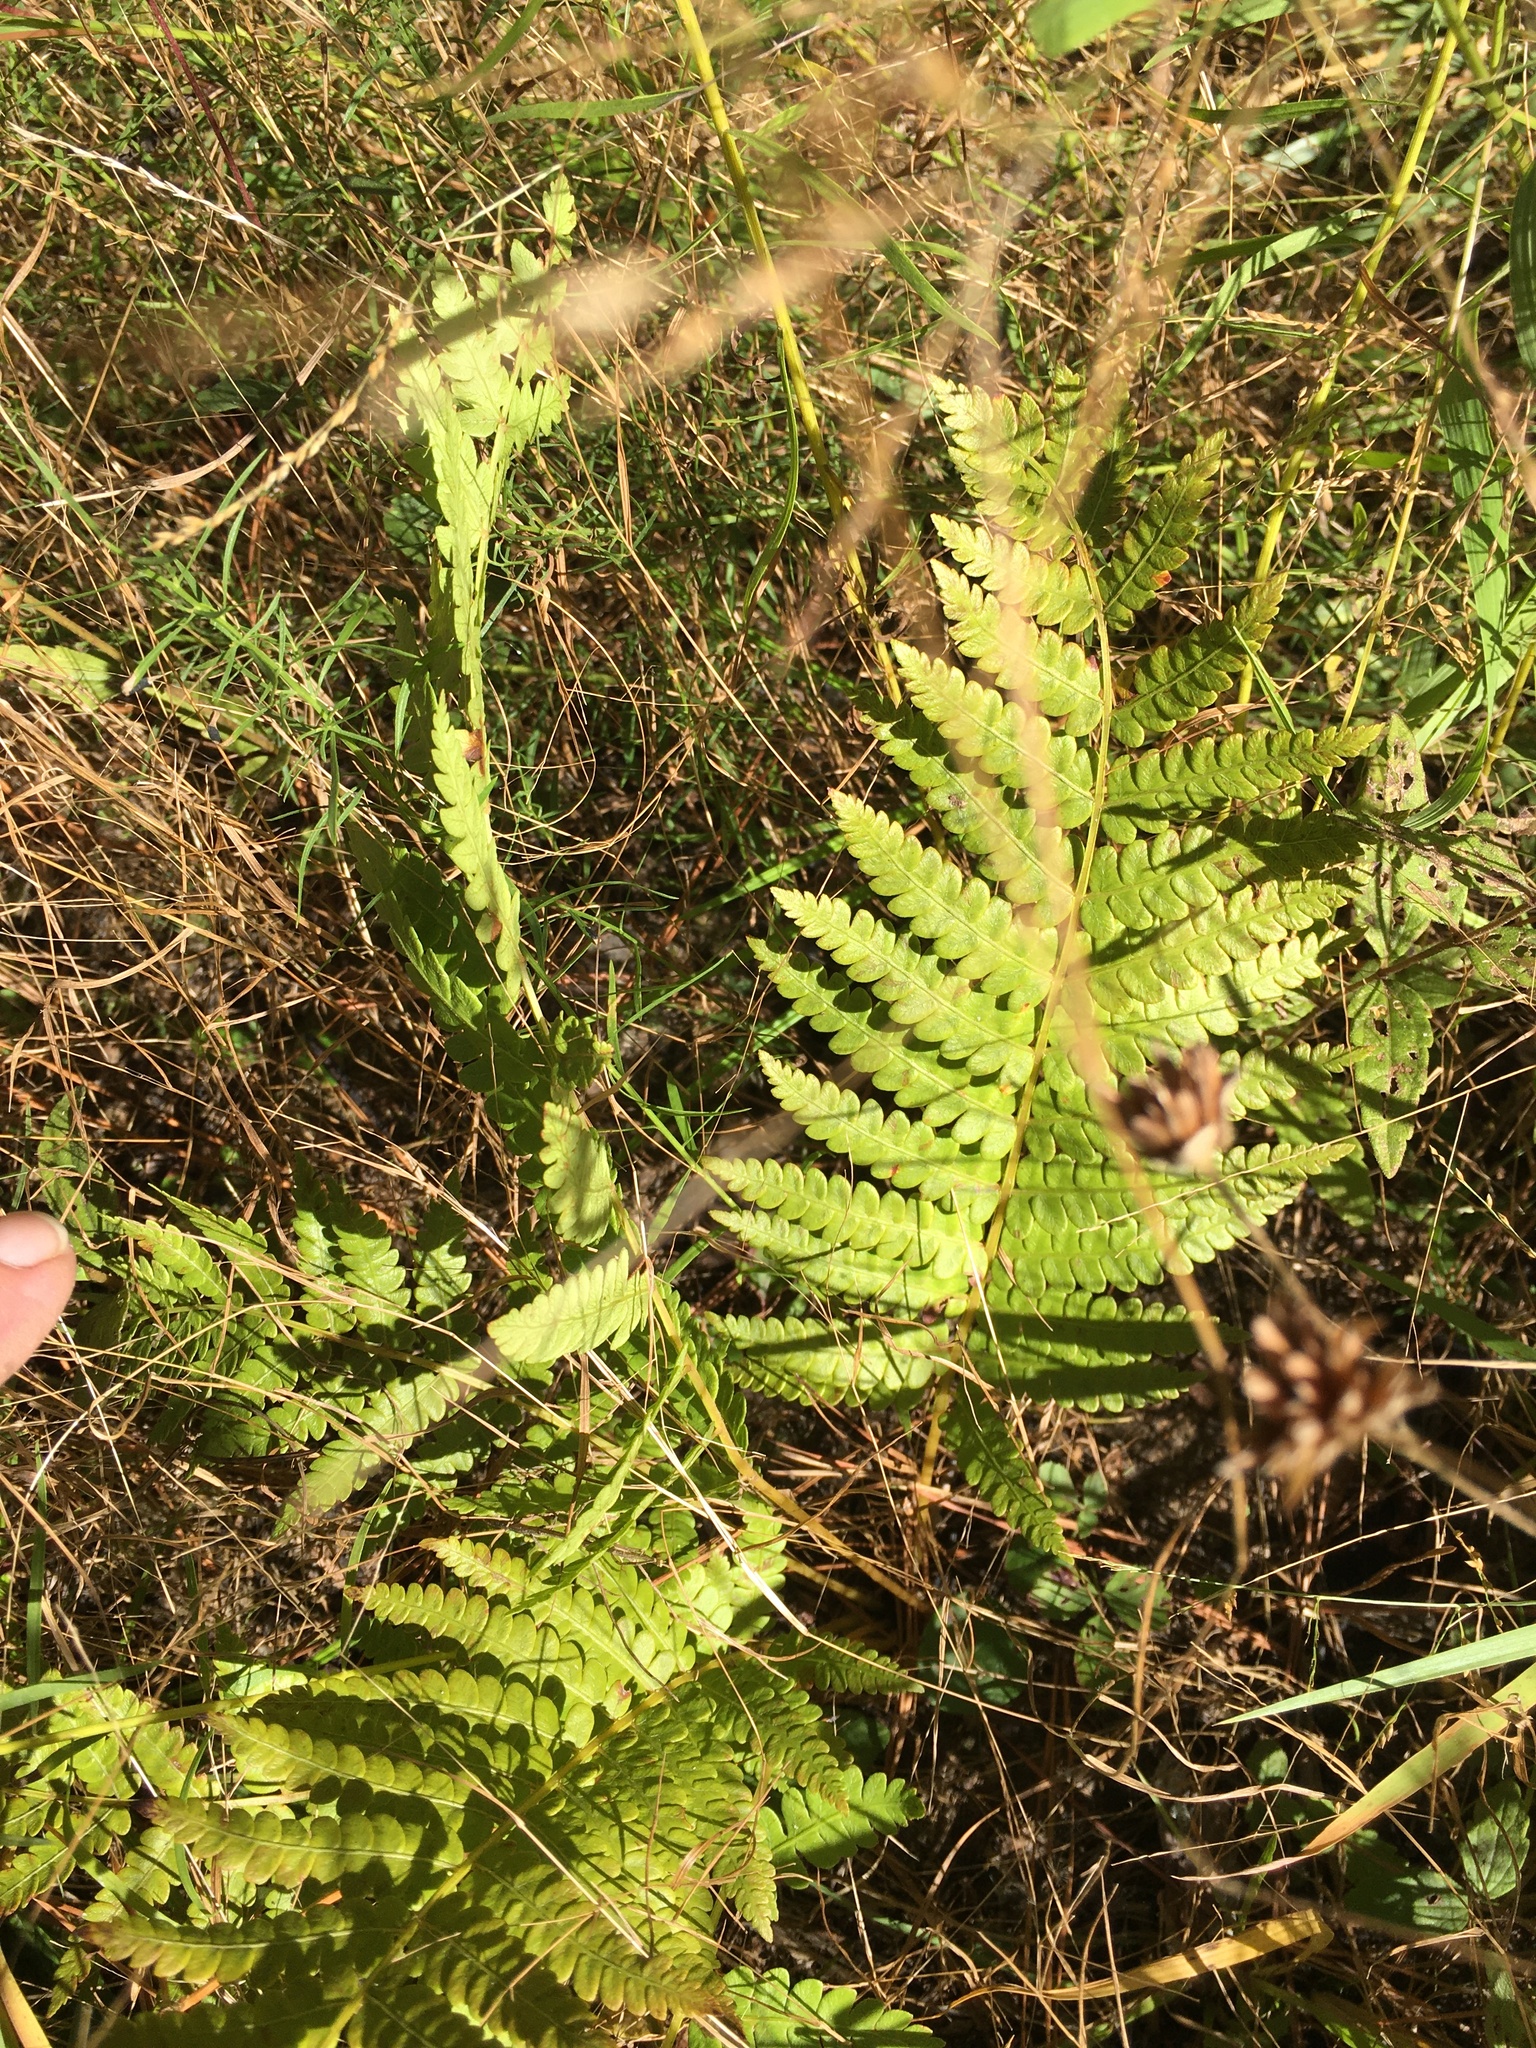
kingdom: Plantae
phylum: Tracheophyta
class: Polypodiopsida
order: Osmundales
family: Osmundaceae
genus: Osmundastrum
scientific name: Osmundastrum cinnamomeum
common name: Cinnamon fern
